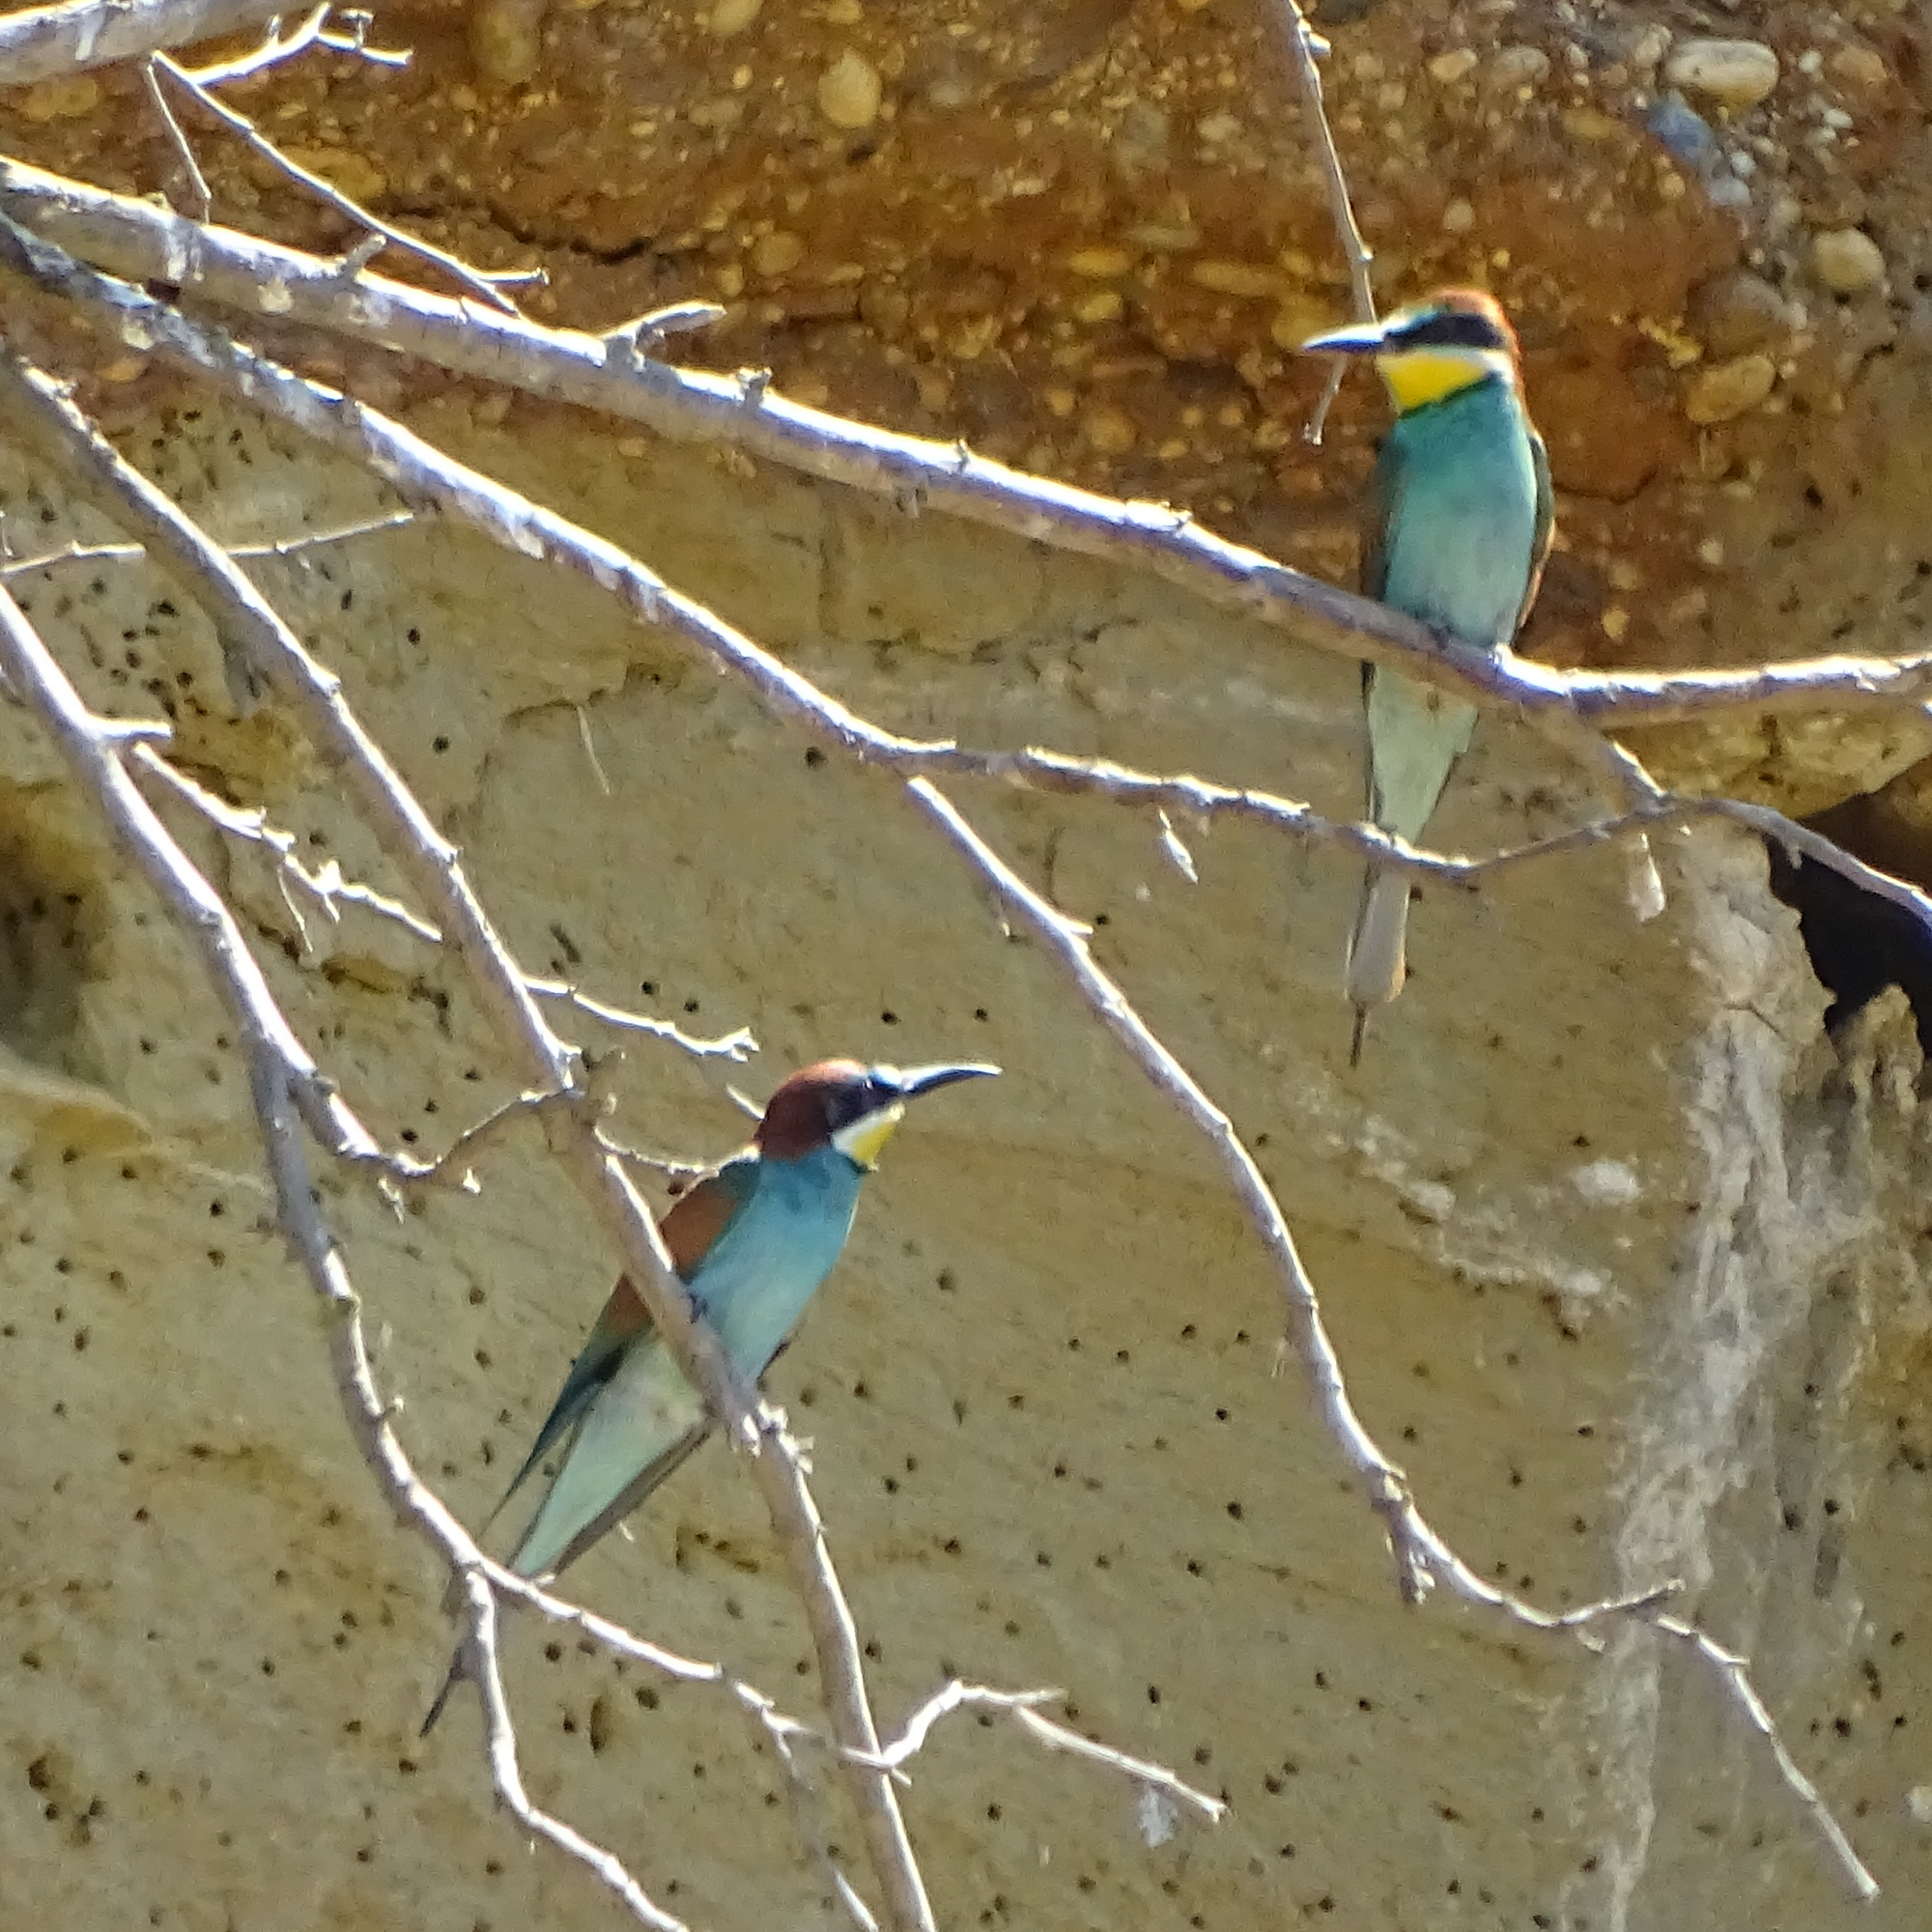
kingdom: Animalia
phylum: Chordata
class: Aves
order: Coraciiformes
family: Meropidae
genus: Merops
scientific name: Merops apiaster
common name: European bee-eater
